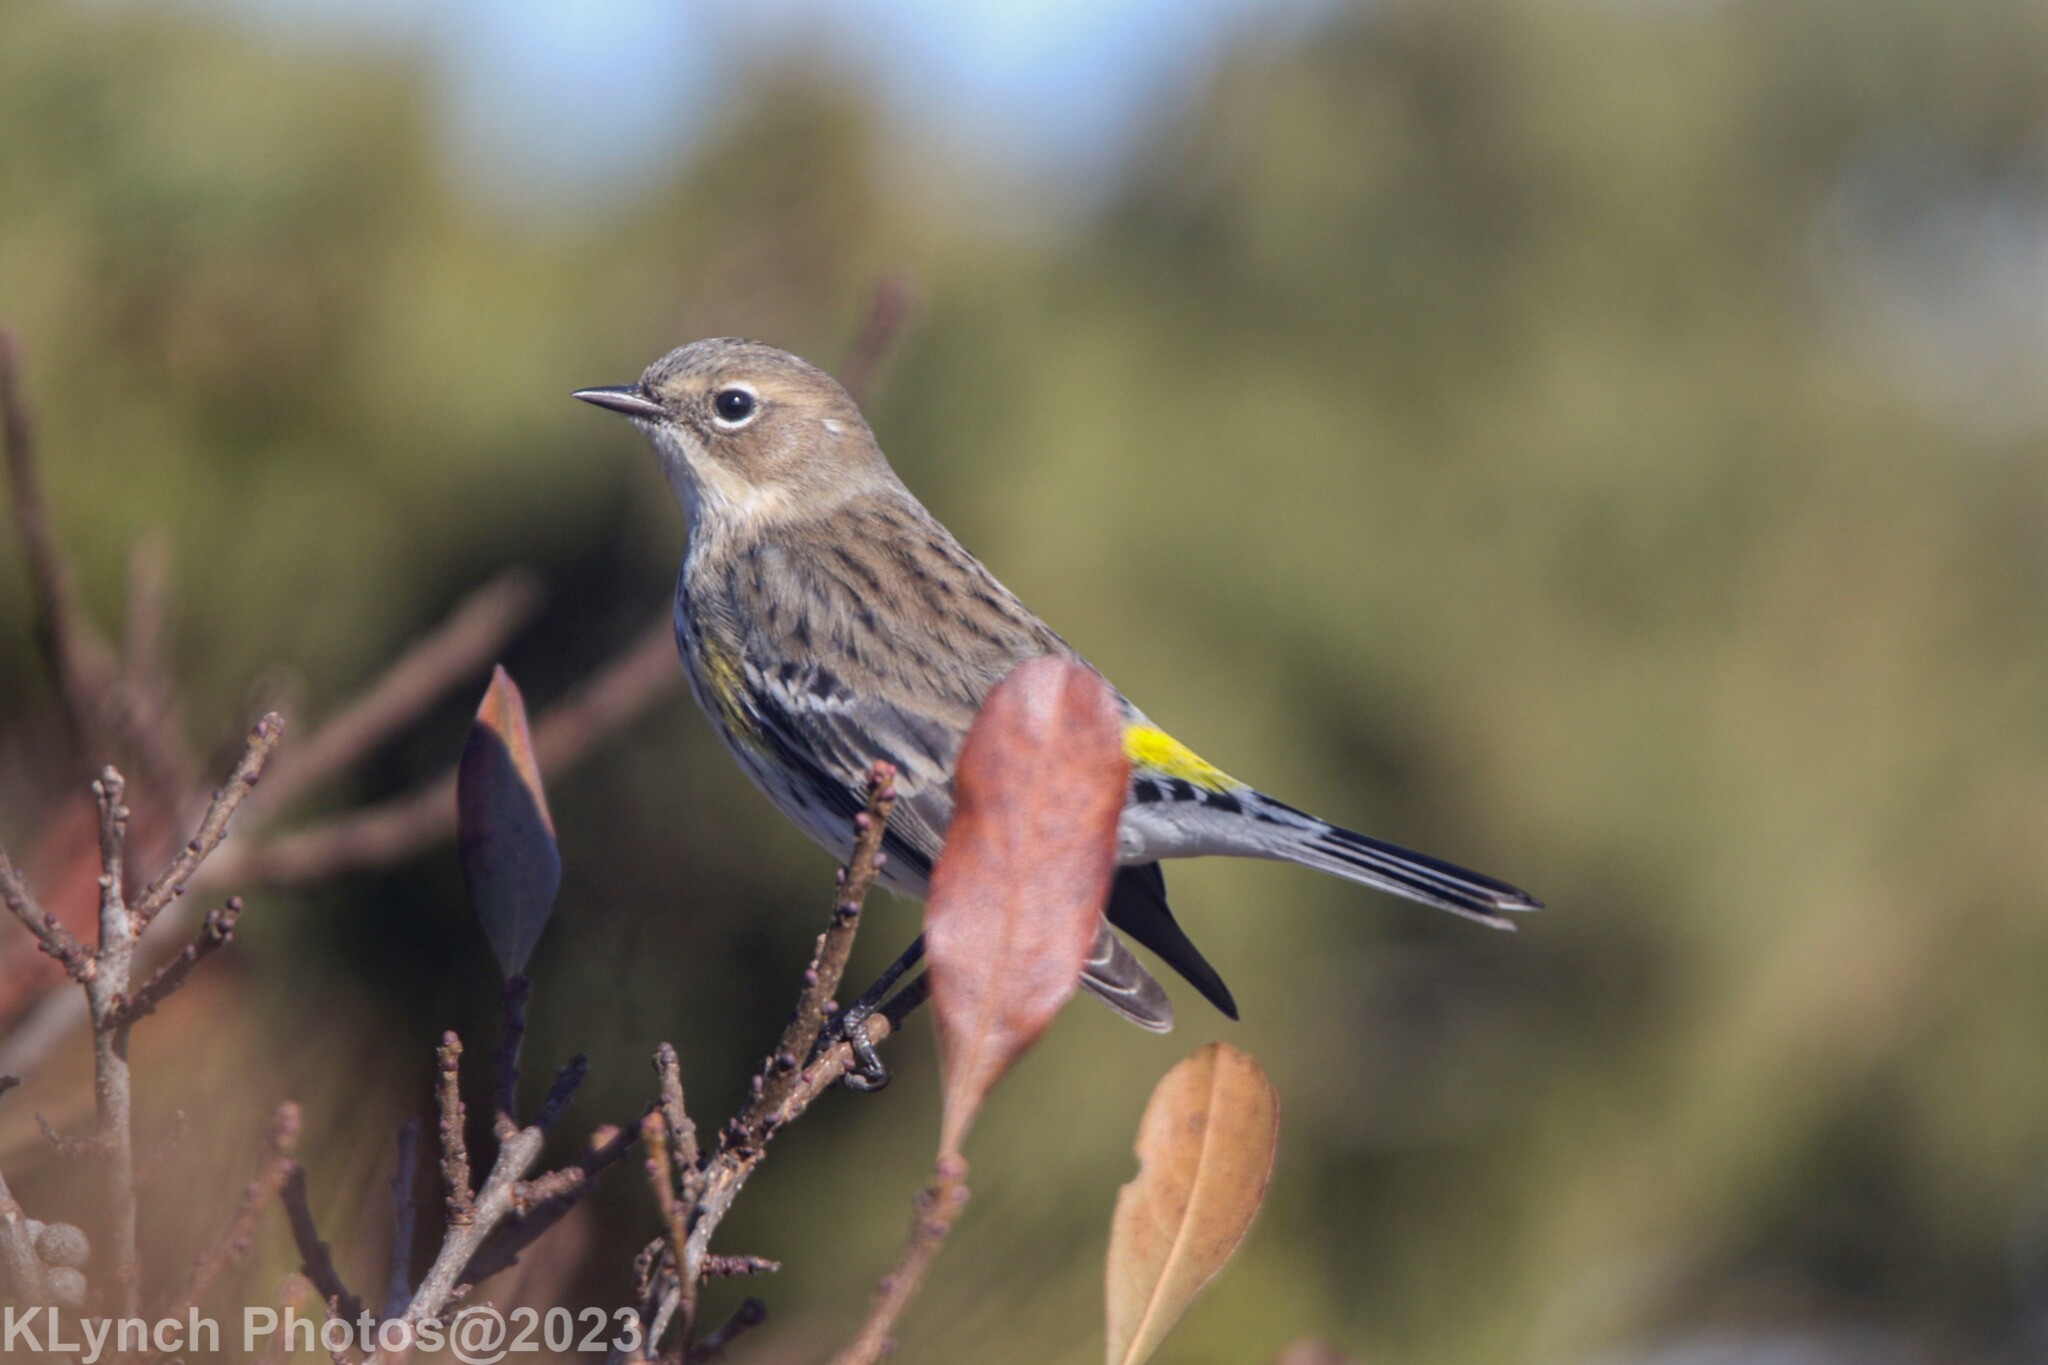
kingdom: Animalia
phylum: Chordata
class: Aves
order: Passeriformes
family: Parulidae
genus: Setophaga
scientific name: Setophaga coronata
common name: Myrtle warbler
